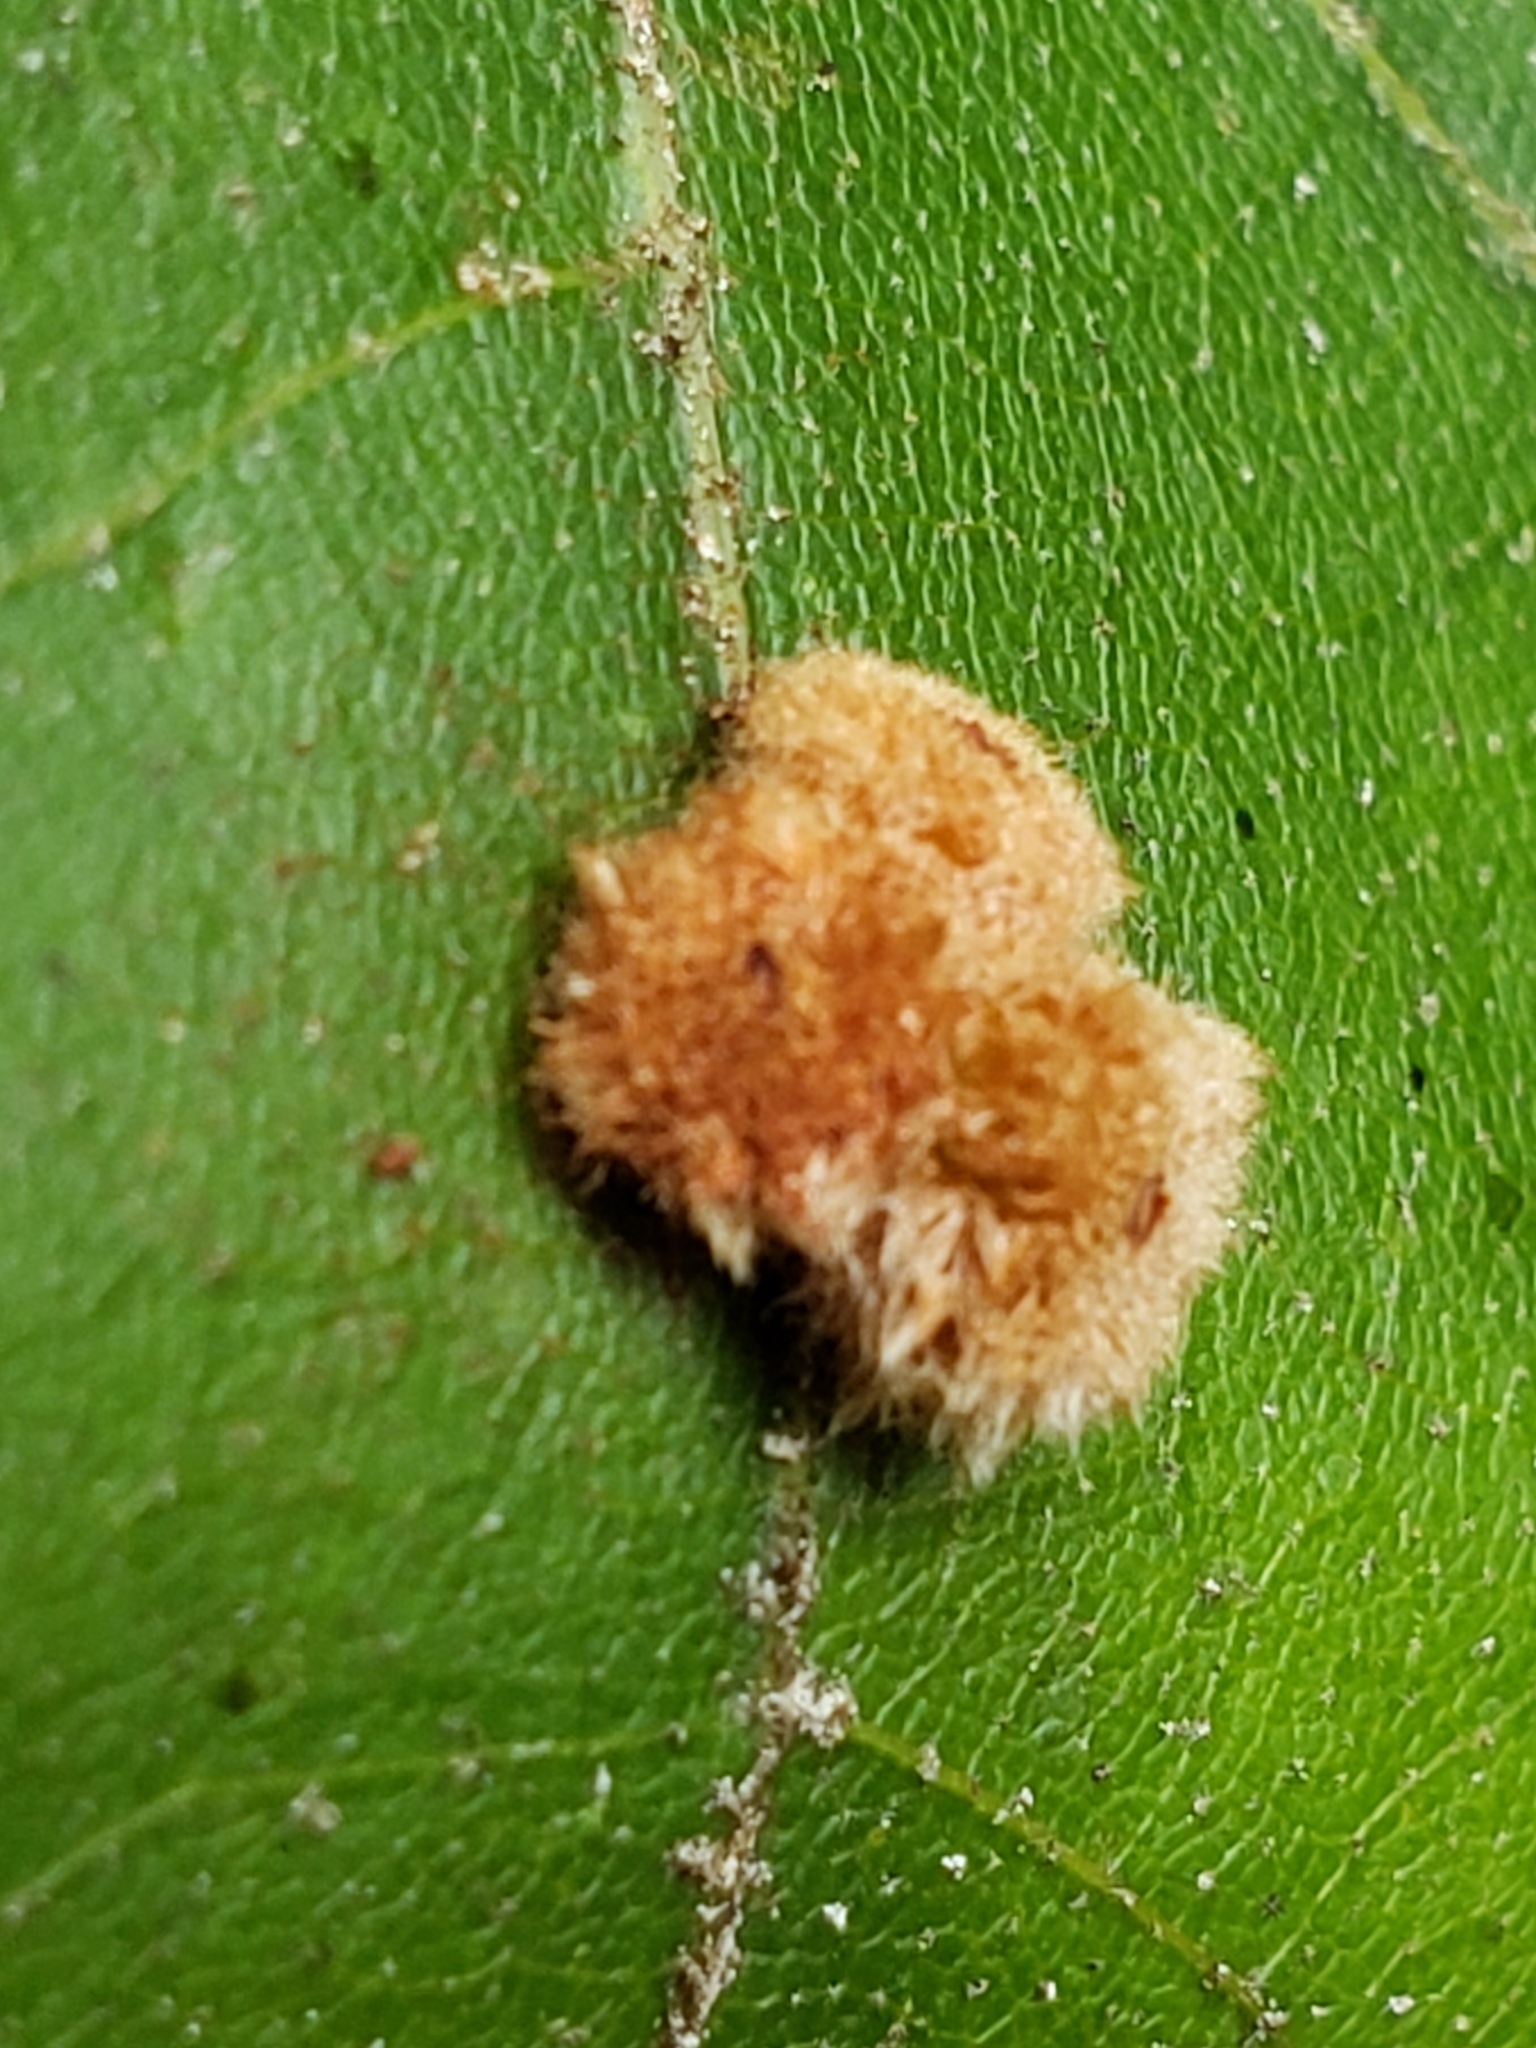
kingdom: Animalia
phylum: Arthropoda
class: Insecta
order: Hymenoptera
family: Cynipidae
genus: Callirhytis
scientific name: Callirhytis
